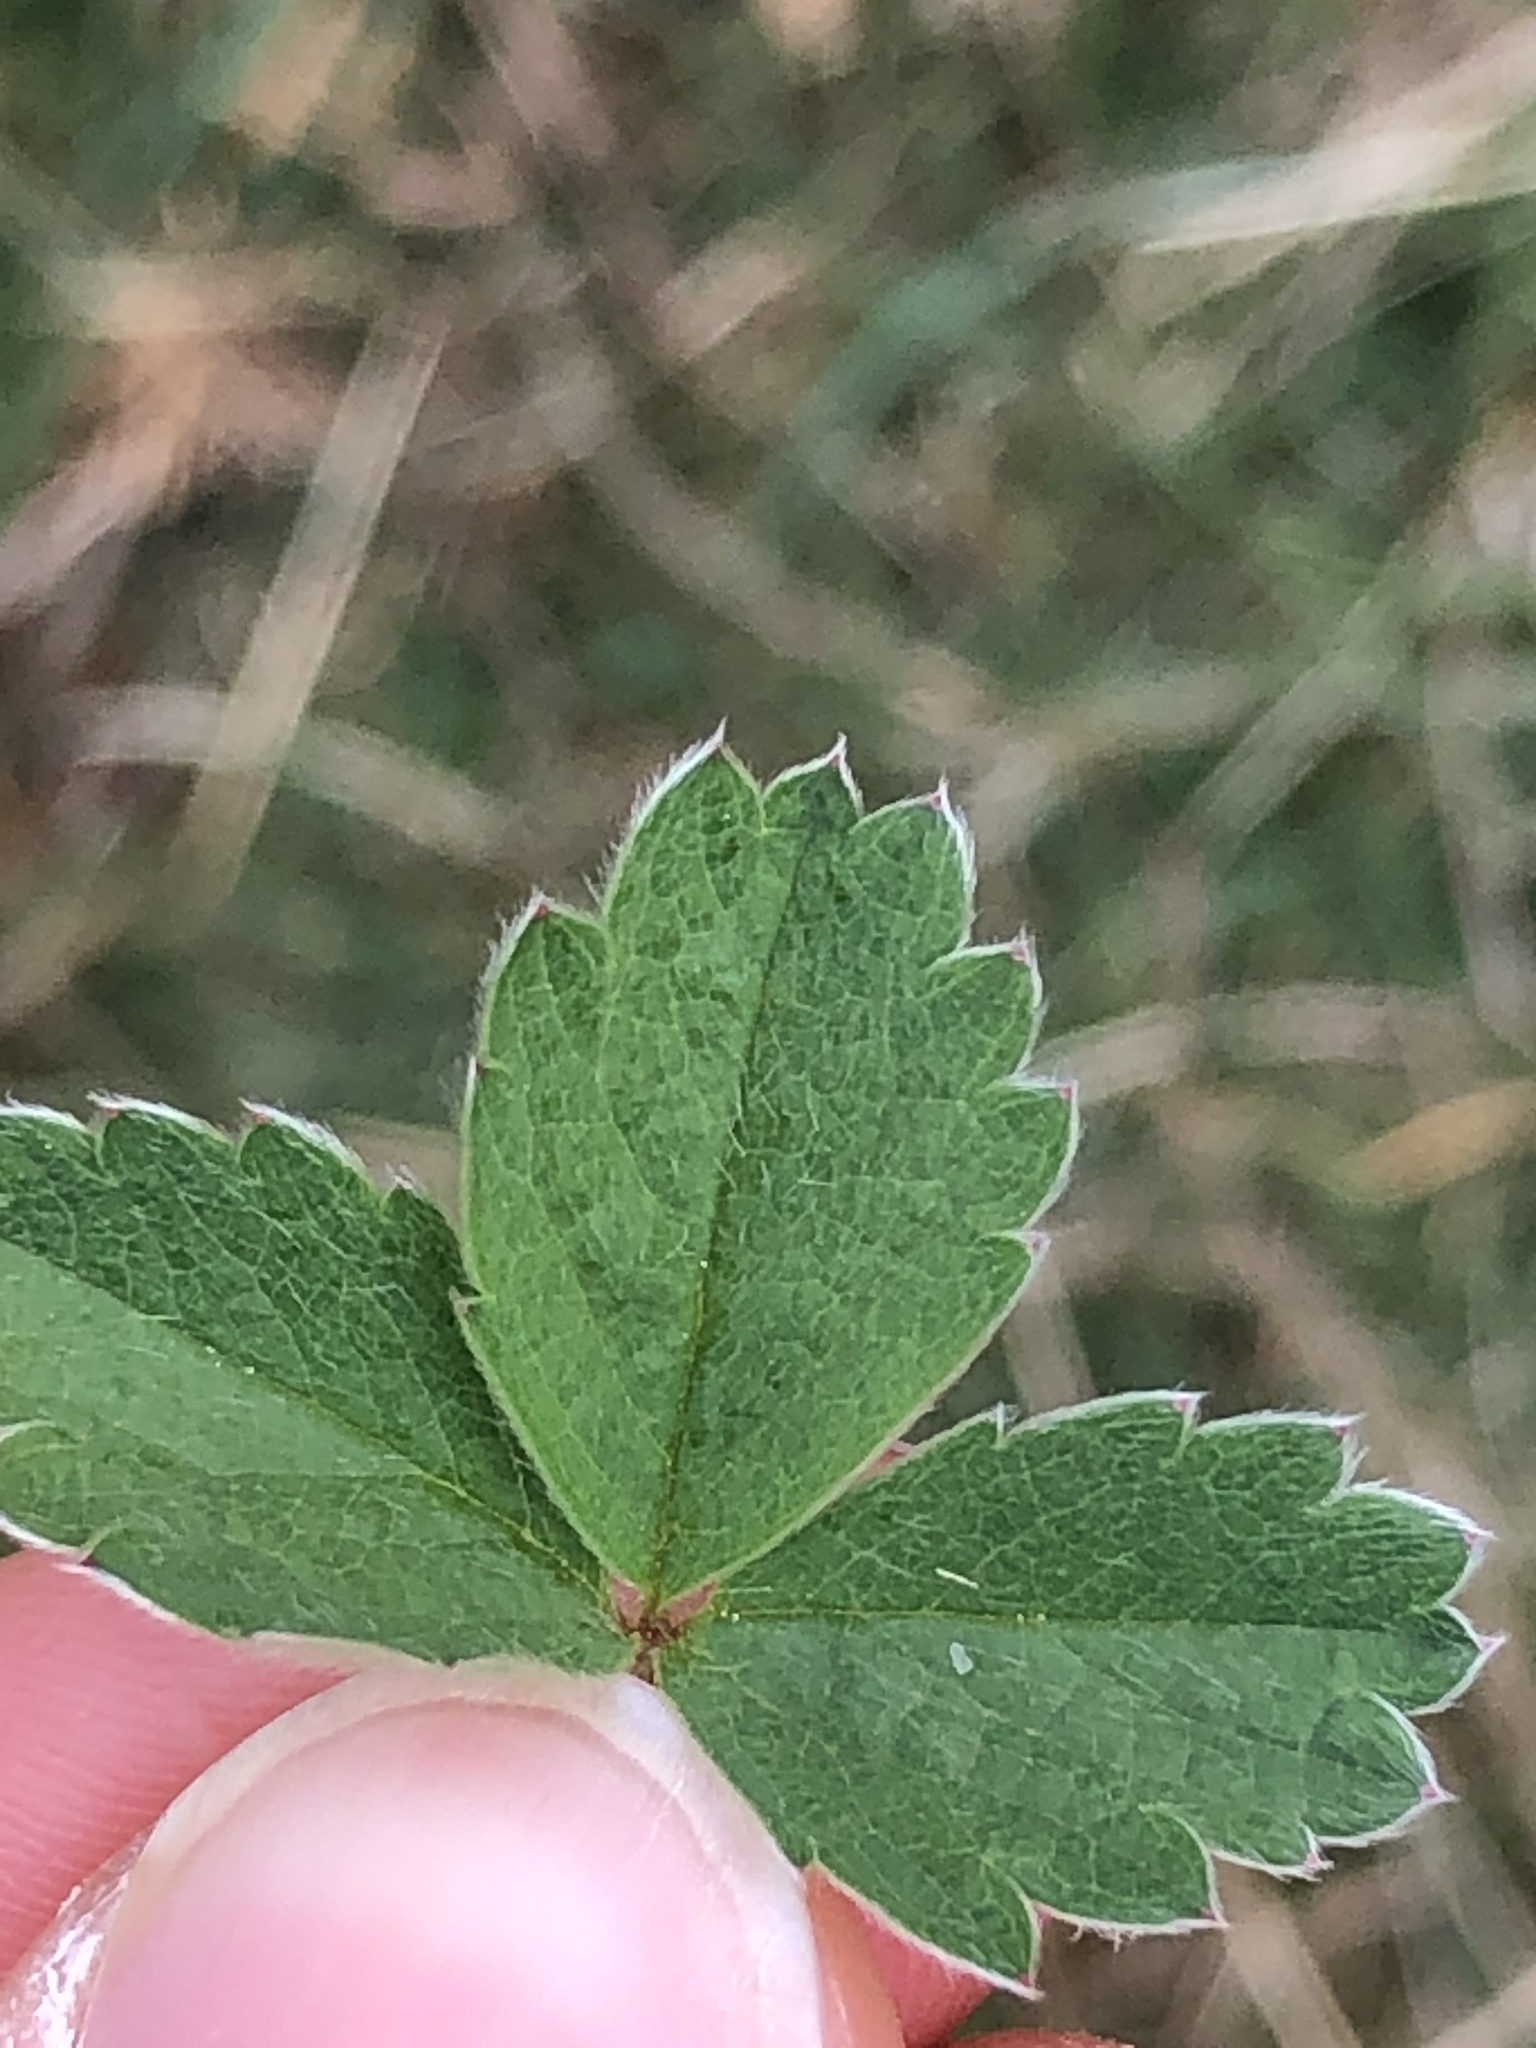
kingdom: Plantae
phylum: Tracheophyta
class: Magnoliopsida
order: Rosales
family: Rosaceae
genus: Potentilla
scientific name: Potentilla sterilis
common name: Barren strawberry
